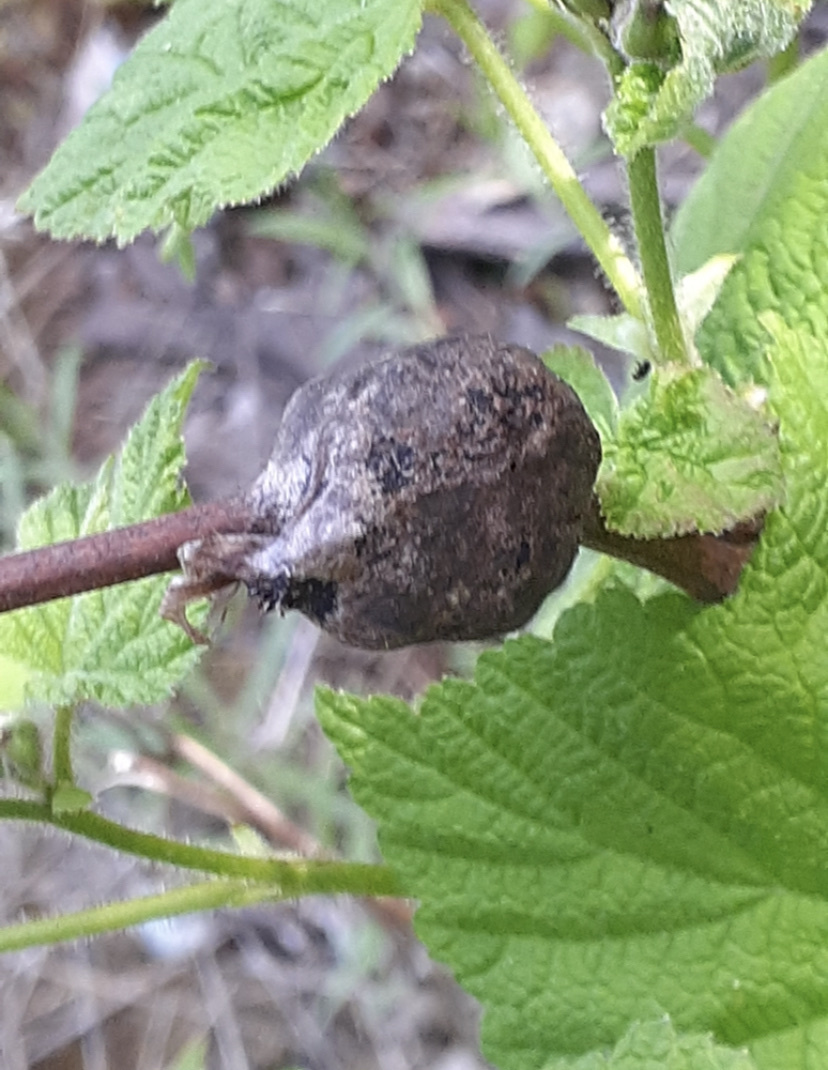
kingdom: Animalia
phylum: Arthropoda
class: Insecta
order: Hymenoptera
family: Cynipidae
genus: Diastrophus
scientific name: Diastrophus
